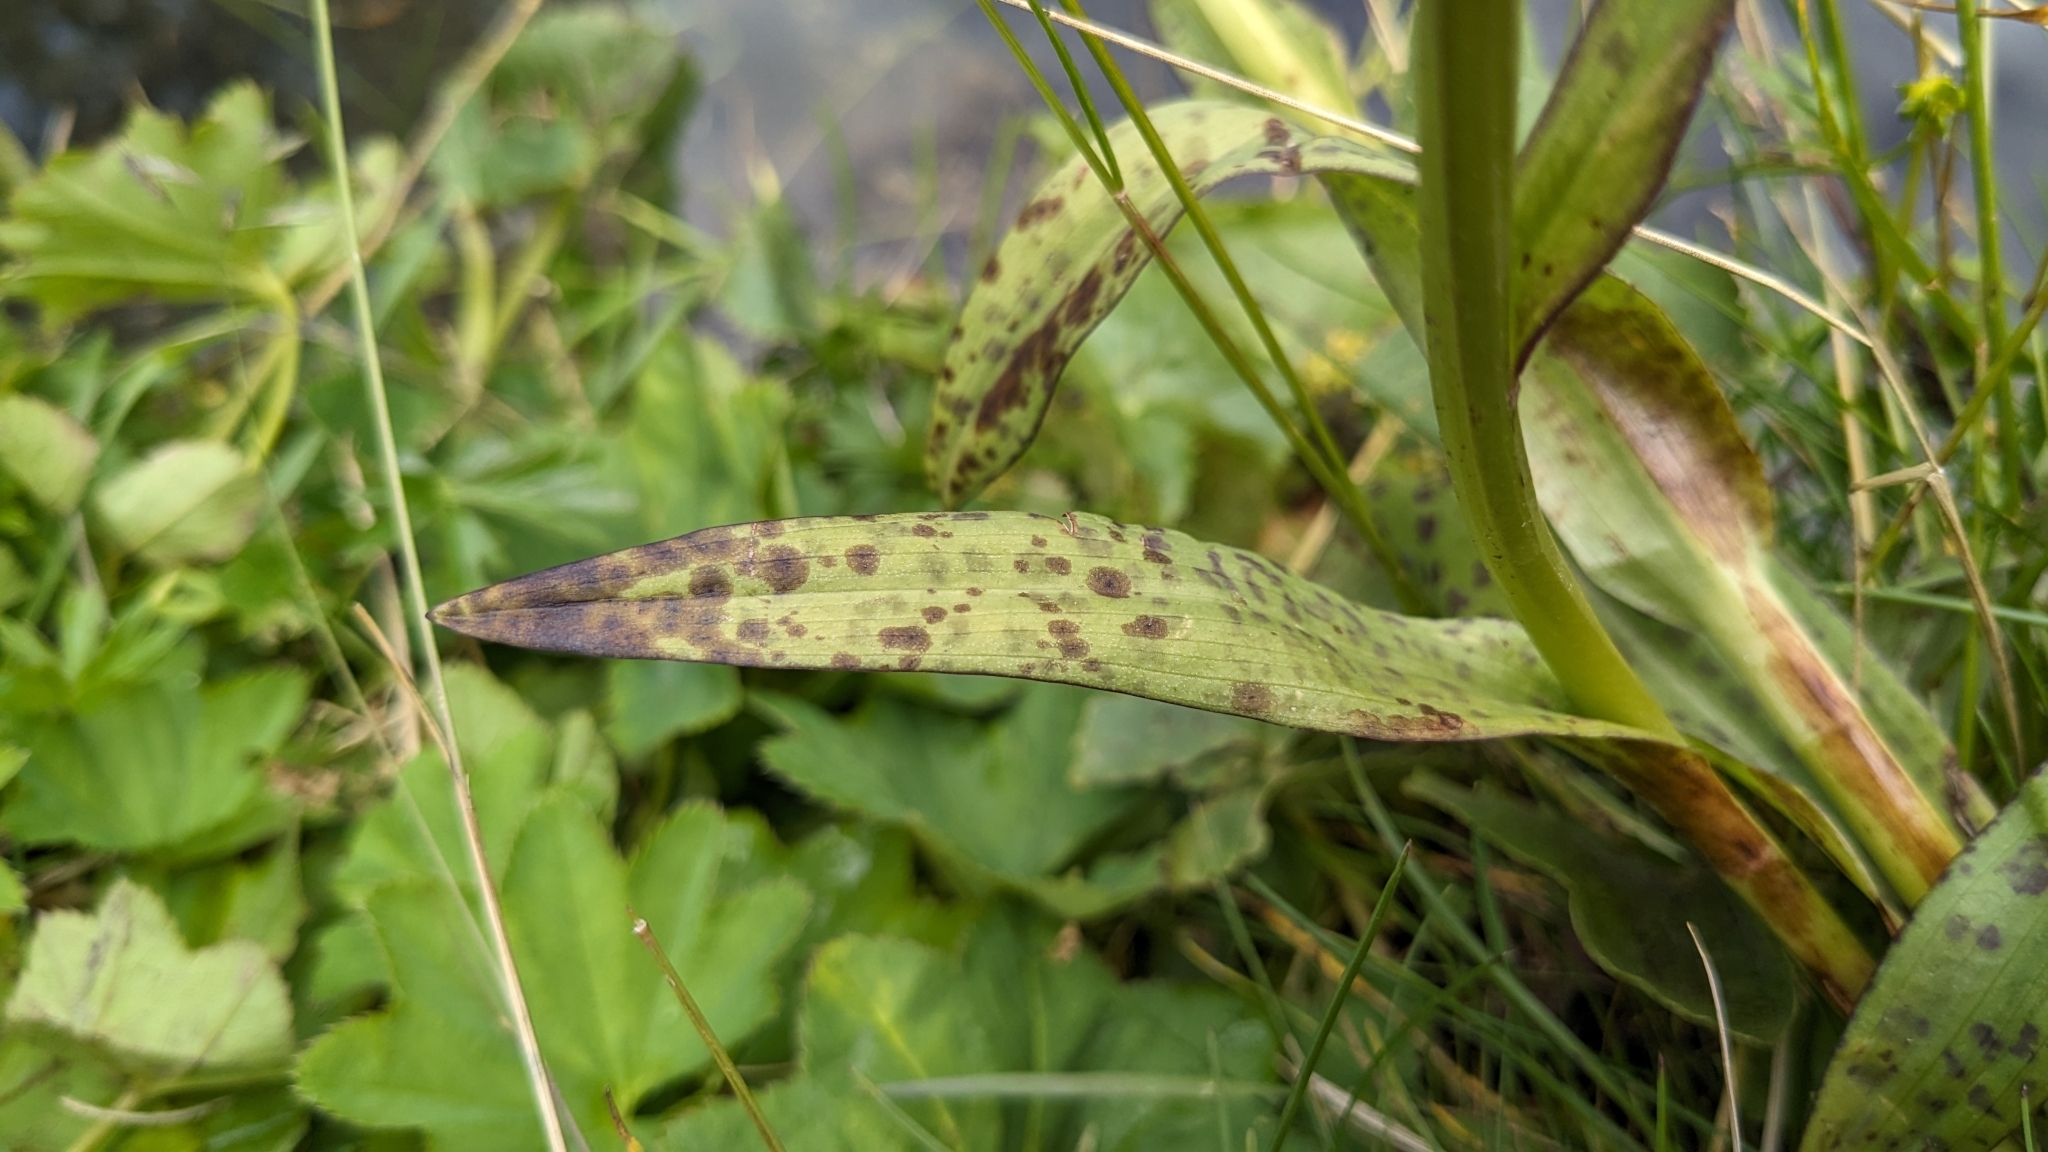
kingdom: Plantae
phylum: Tracheophyta
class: Liliopsida
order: Asparagales
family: Orchidaceae
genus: Dactylorhiza
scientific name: Dactylorhiza majalis
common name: Marsh orchid
